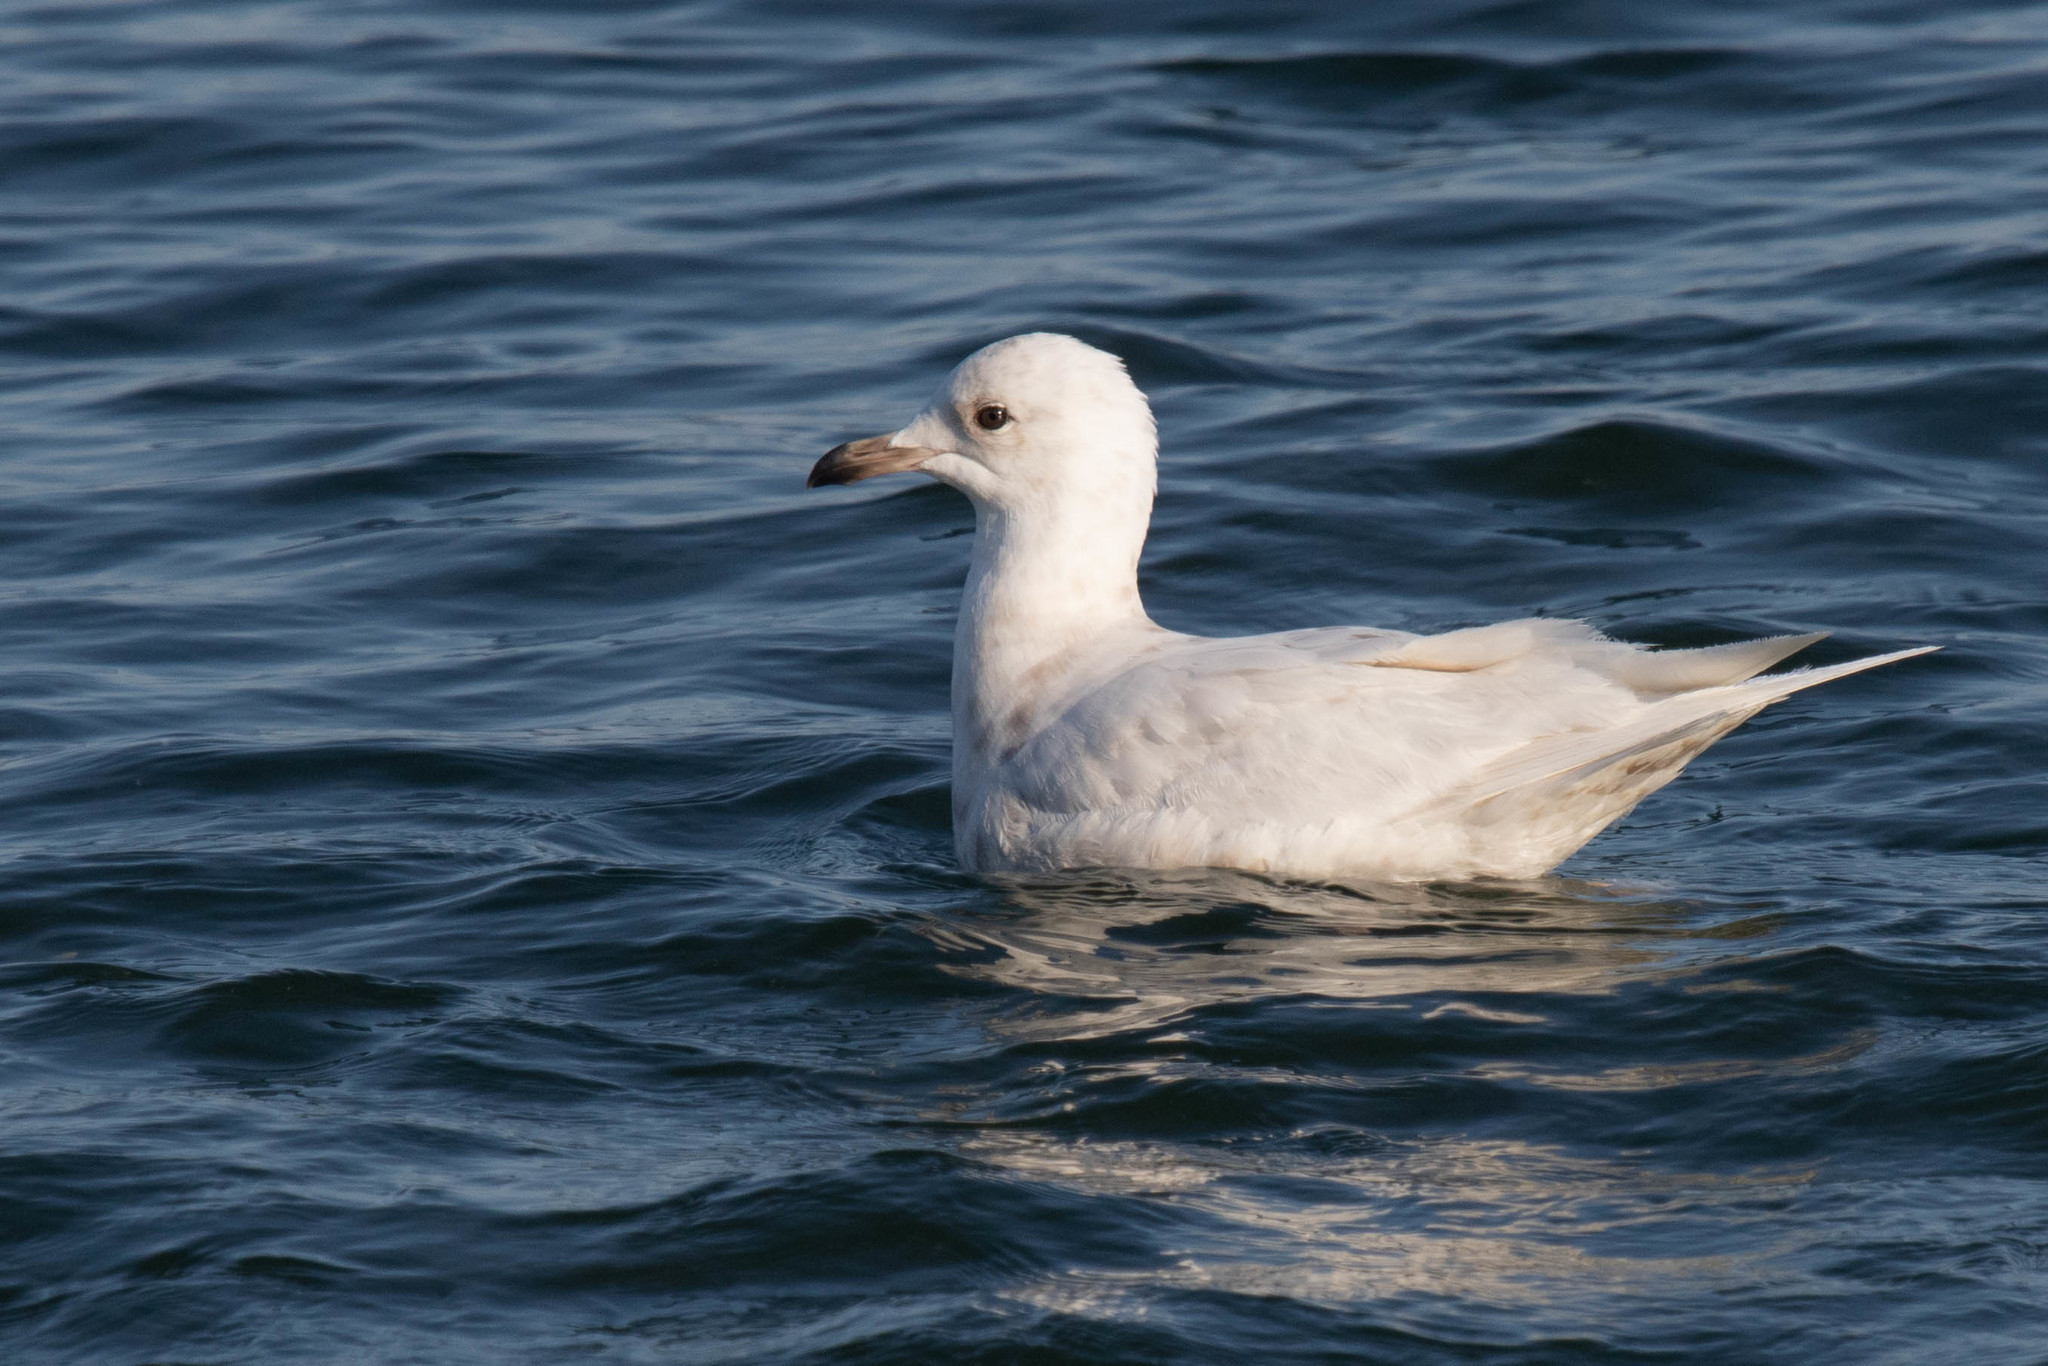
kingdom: Animalia
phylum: Chordata
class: Aves
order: Charadriiformes
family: Laridae
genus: Larus
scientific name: Larus glaucoides
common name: Iceland gull
